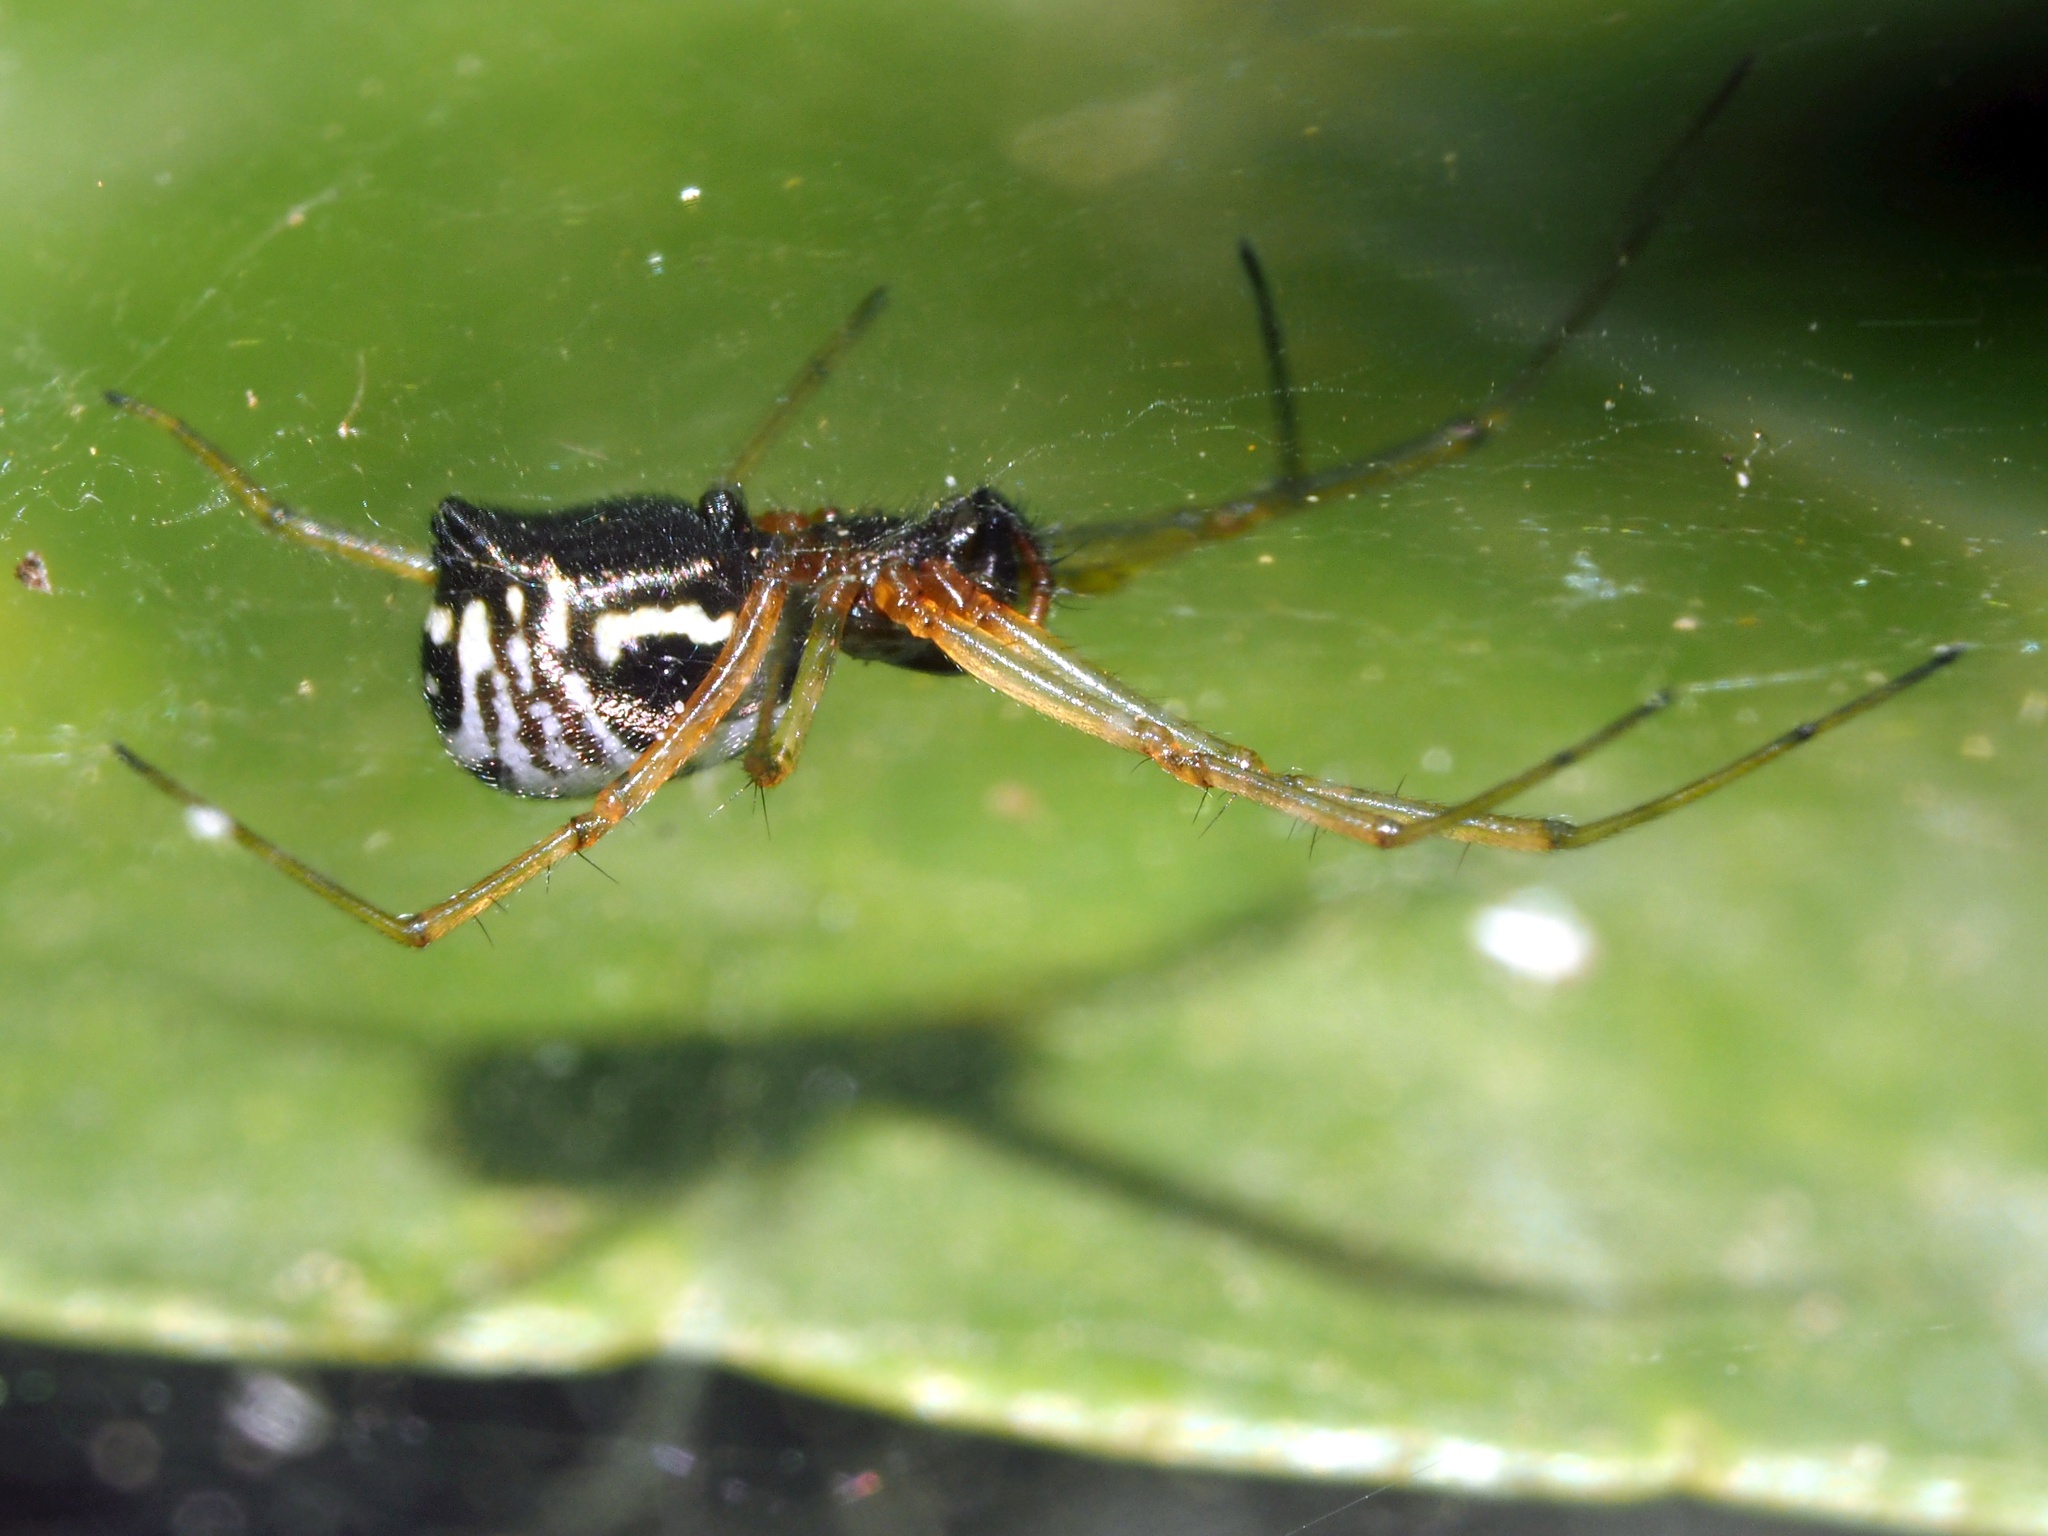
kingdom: Animalia
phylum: Arthropoda
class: Arachnida
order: Araneae
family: Linyphiidae
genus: Frontinellina
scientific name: Frontinellina frutetorum
